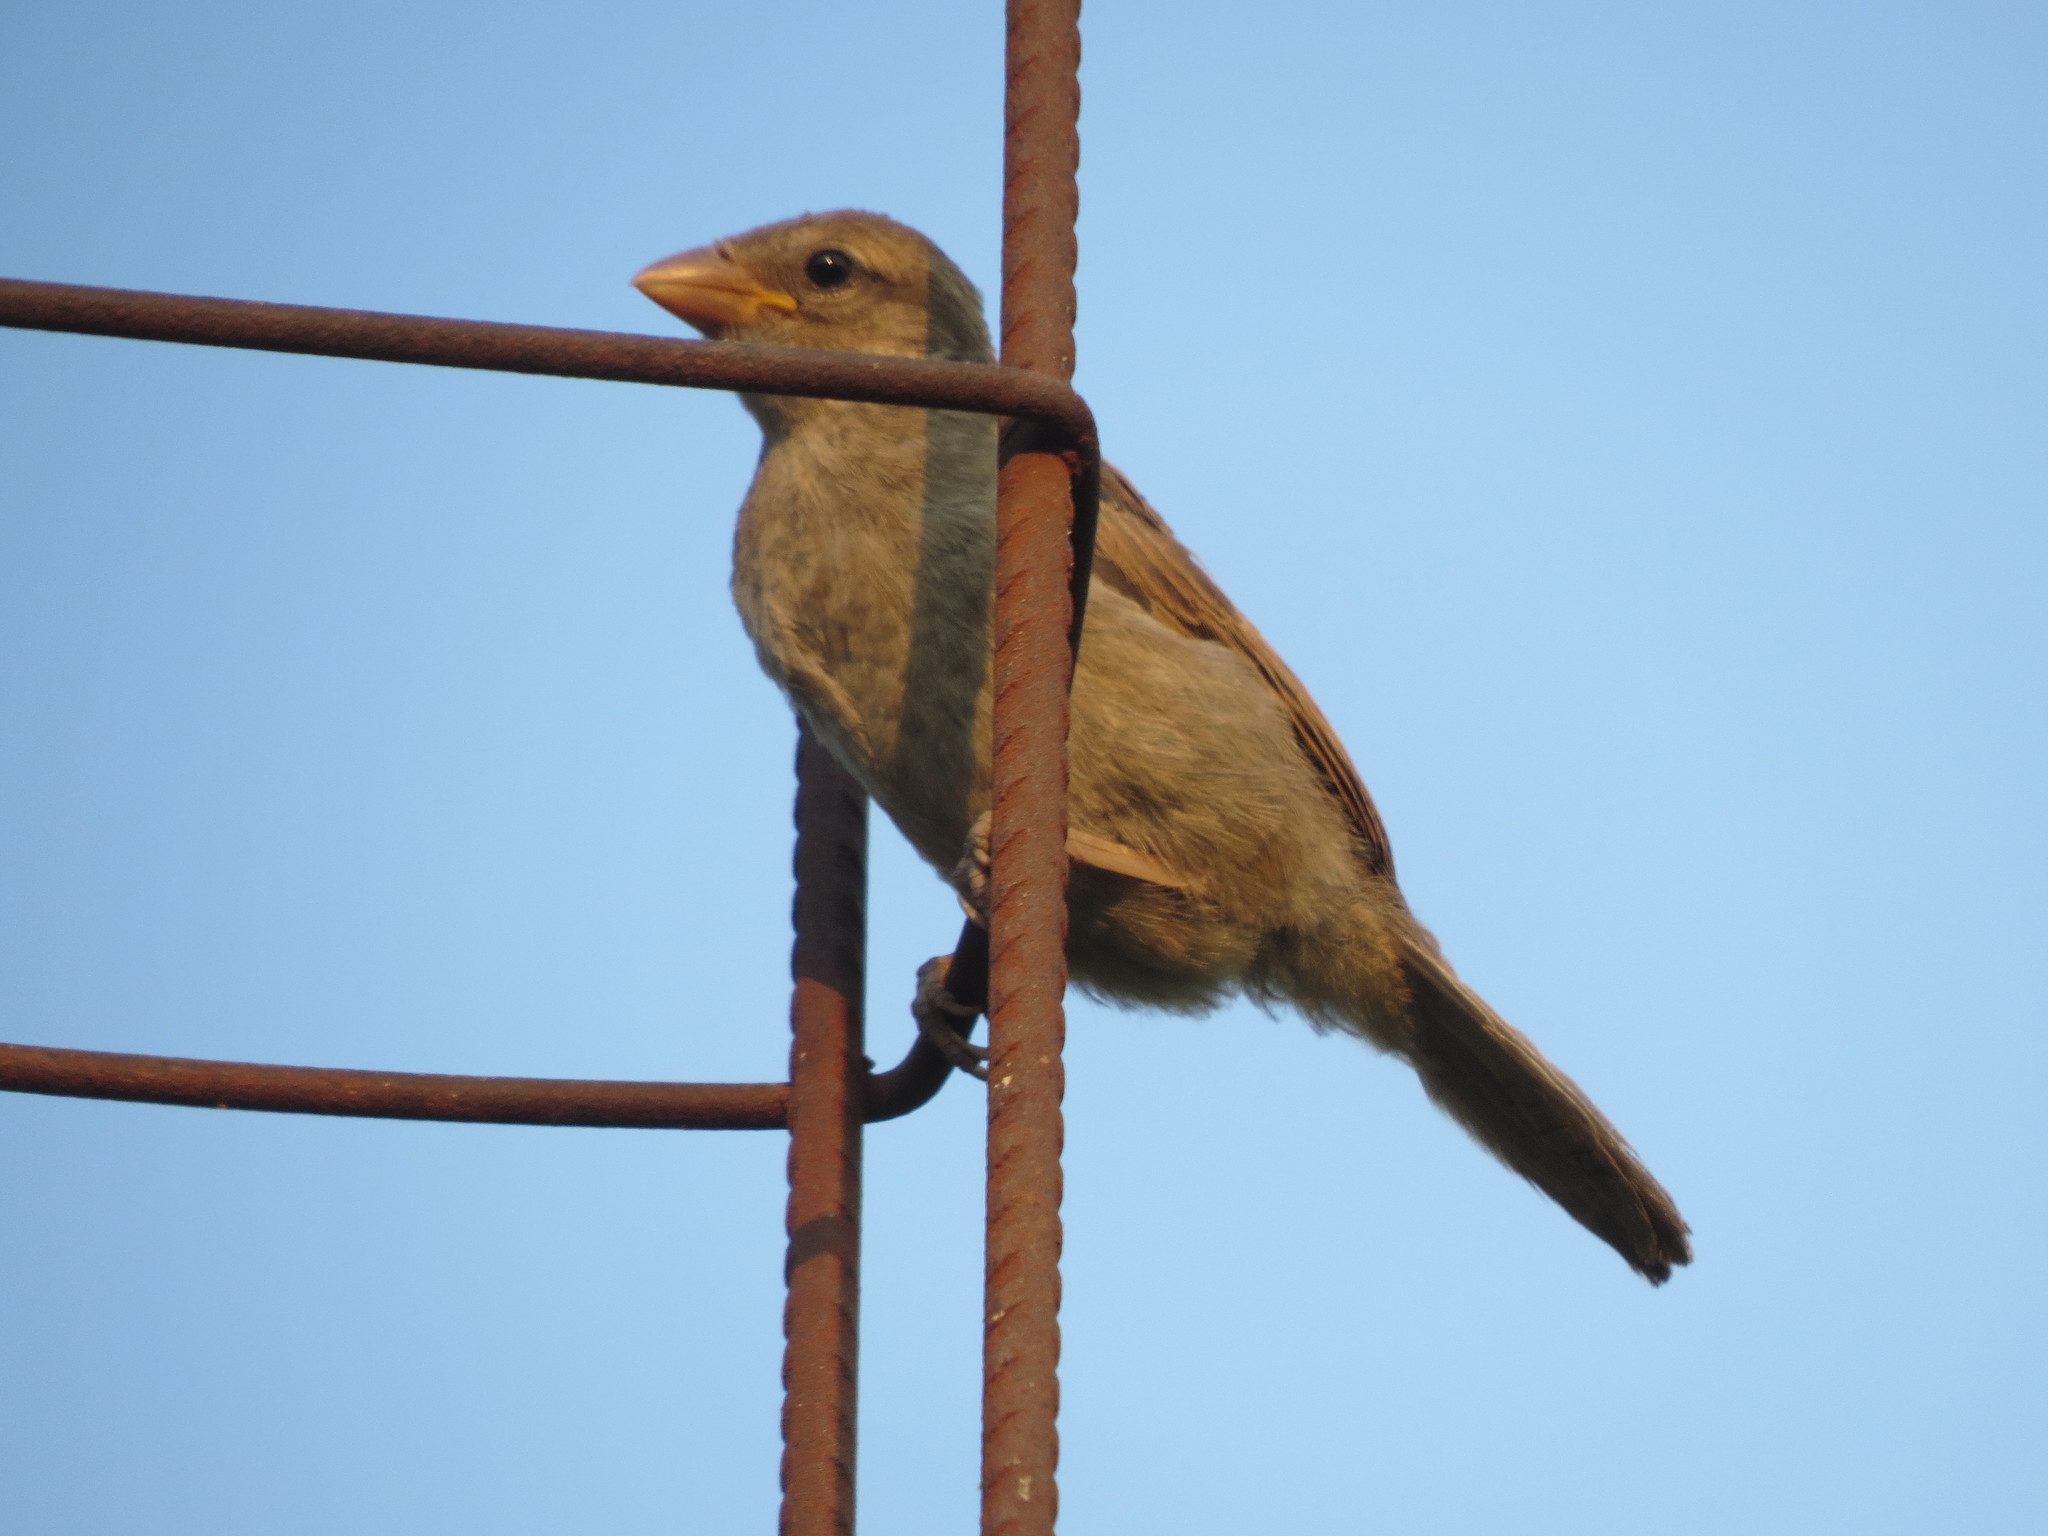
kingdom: Animalia
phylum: Chordata
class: Aves
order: Passeriformes
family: Passeridae
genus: Passer
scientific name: Passer domesticus
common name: House sparrow
